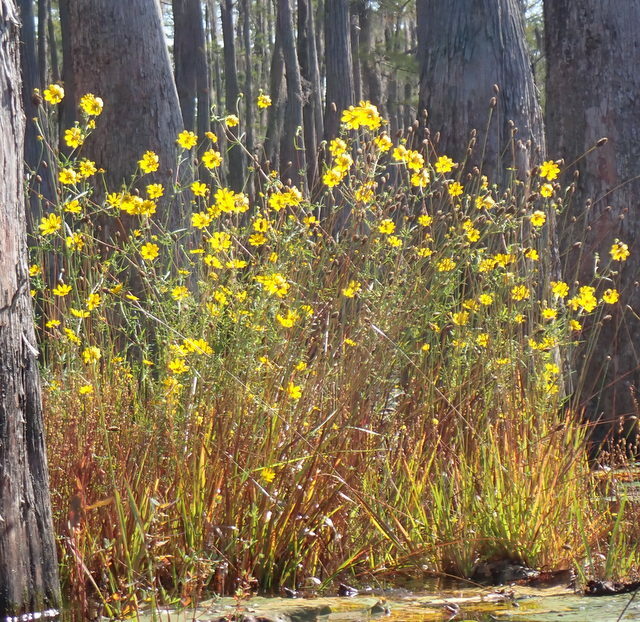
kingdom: Plantae
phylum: Tracheophyta
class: Magnoliopsida
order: Asterales
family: Asteraceae
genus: Bidens
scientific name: Bidens mitis
